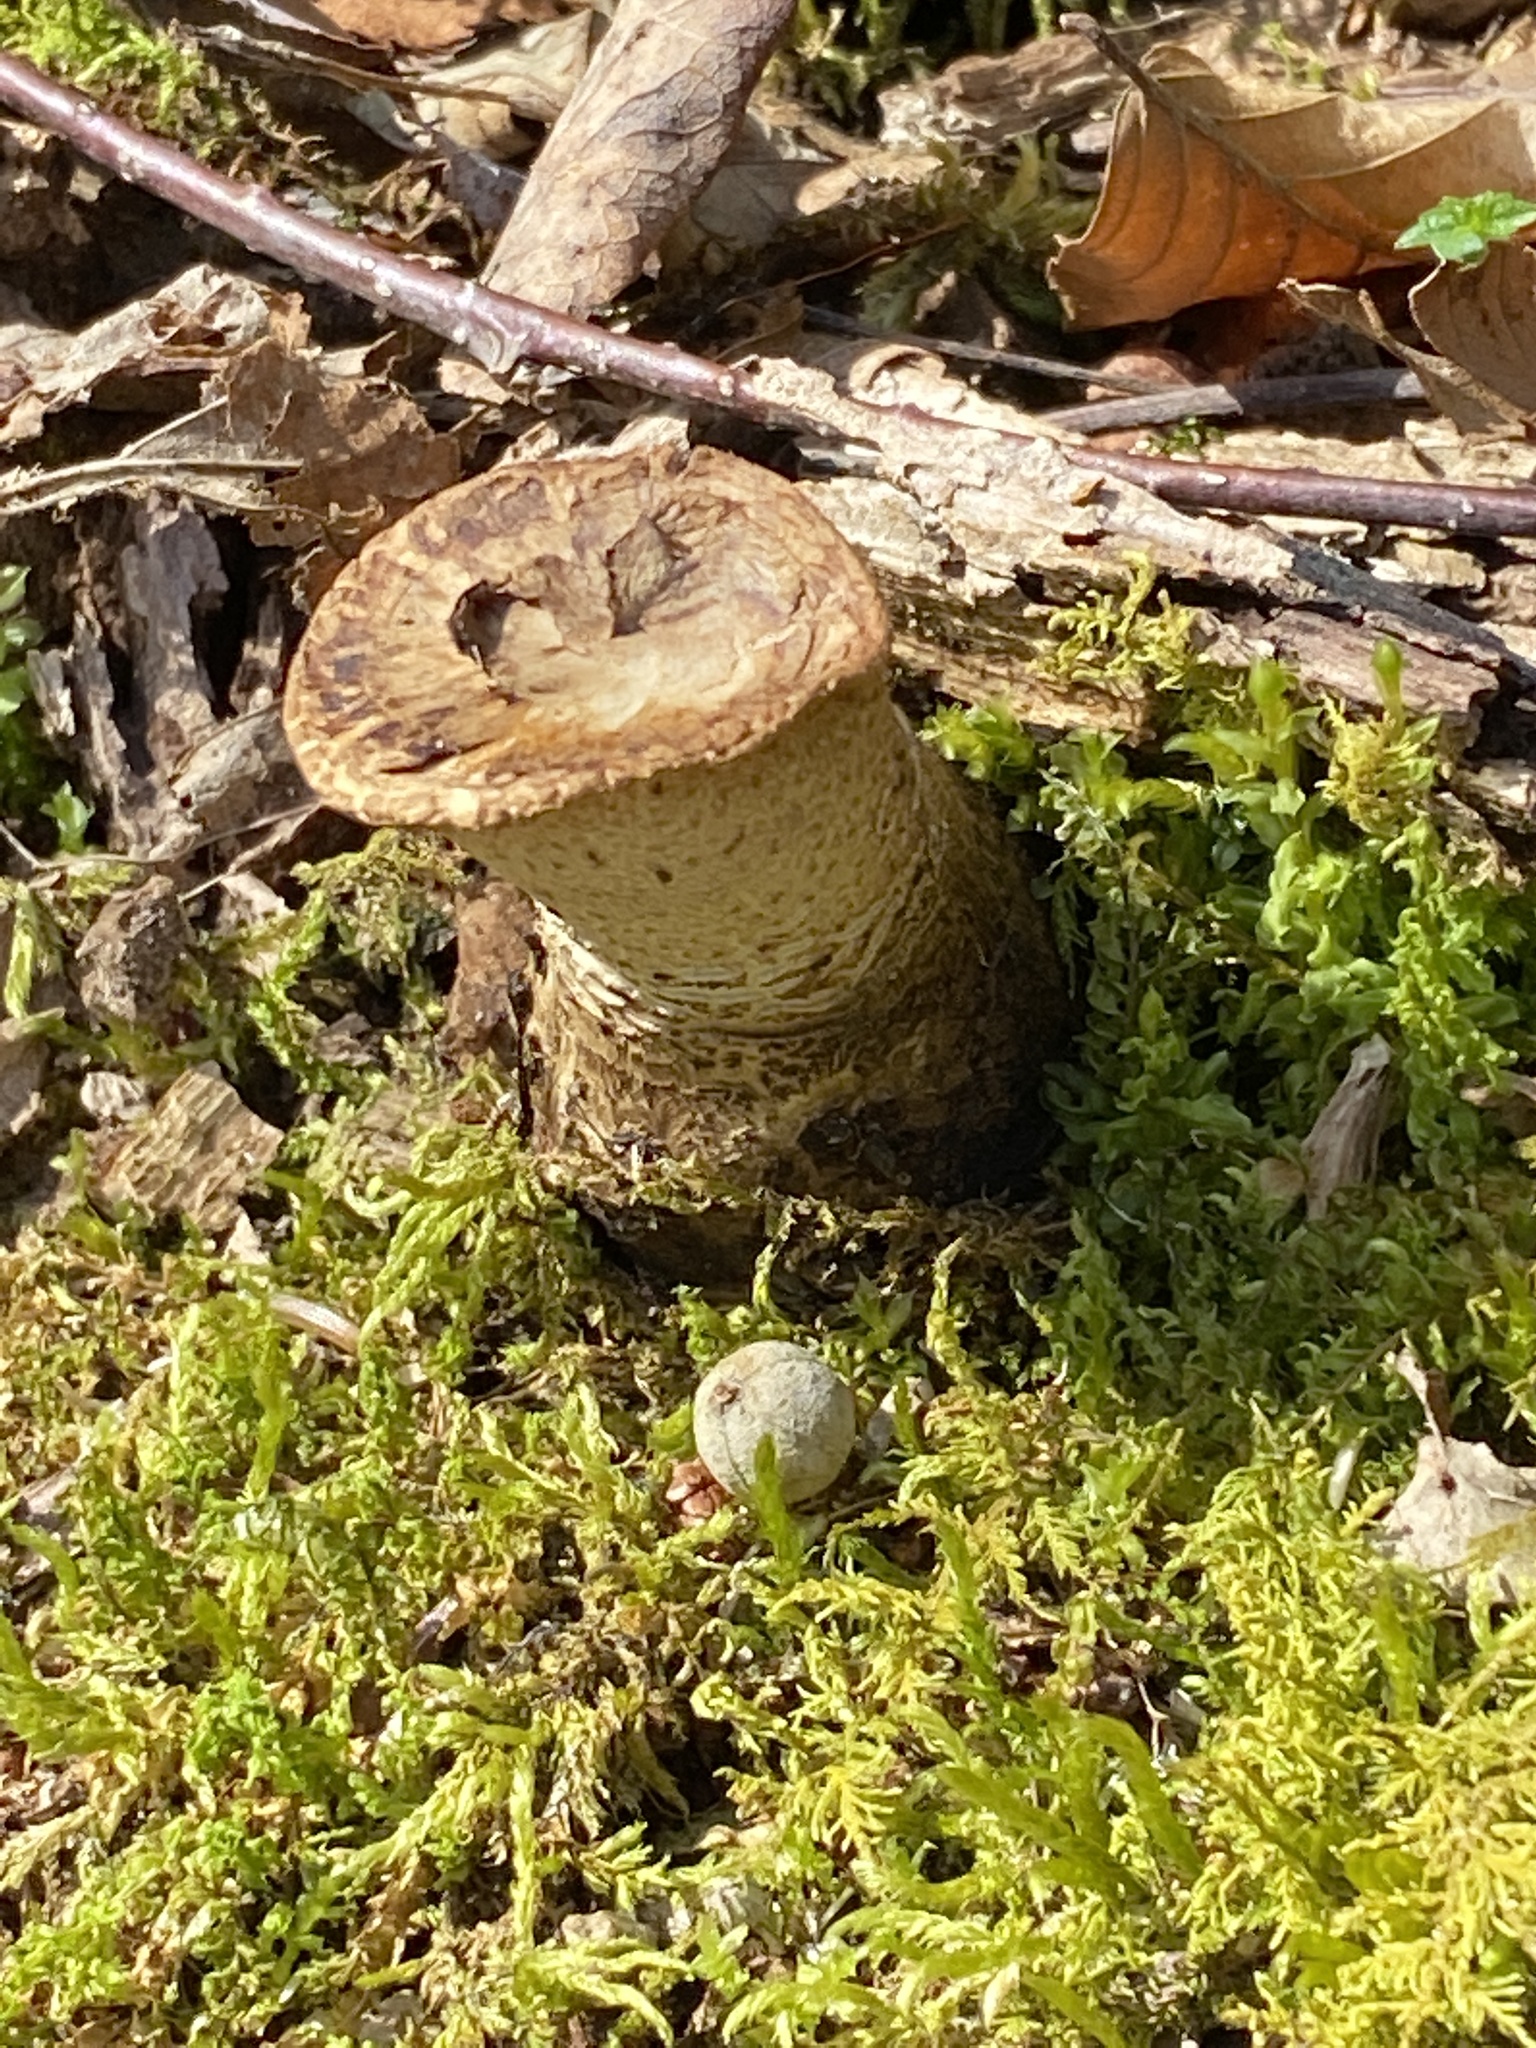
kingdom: Fungi
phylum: Basidiomycota
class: Agaricomycetes
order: Polyporales
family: Polyporaceae
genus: Cerioporus
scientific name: Cerioporus squamosus
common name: Dryad's saddle
